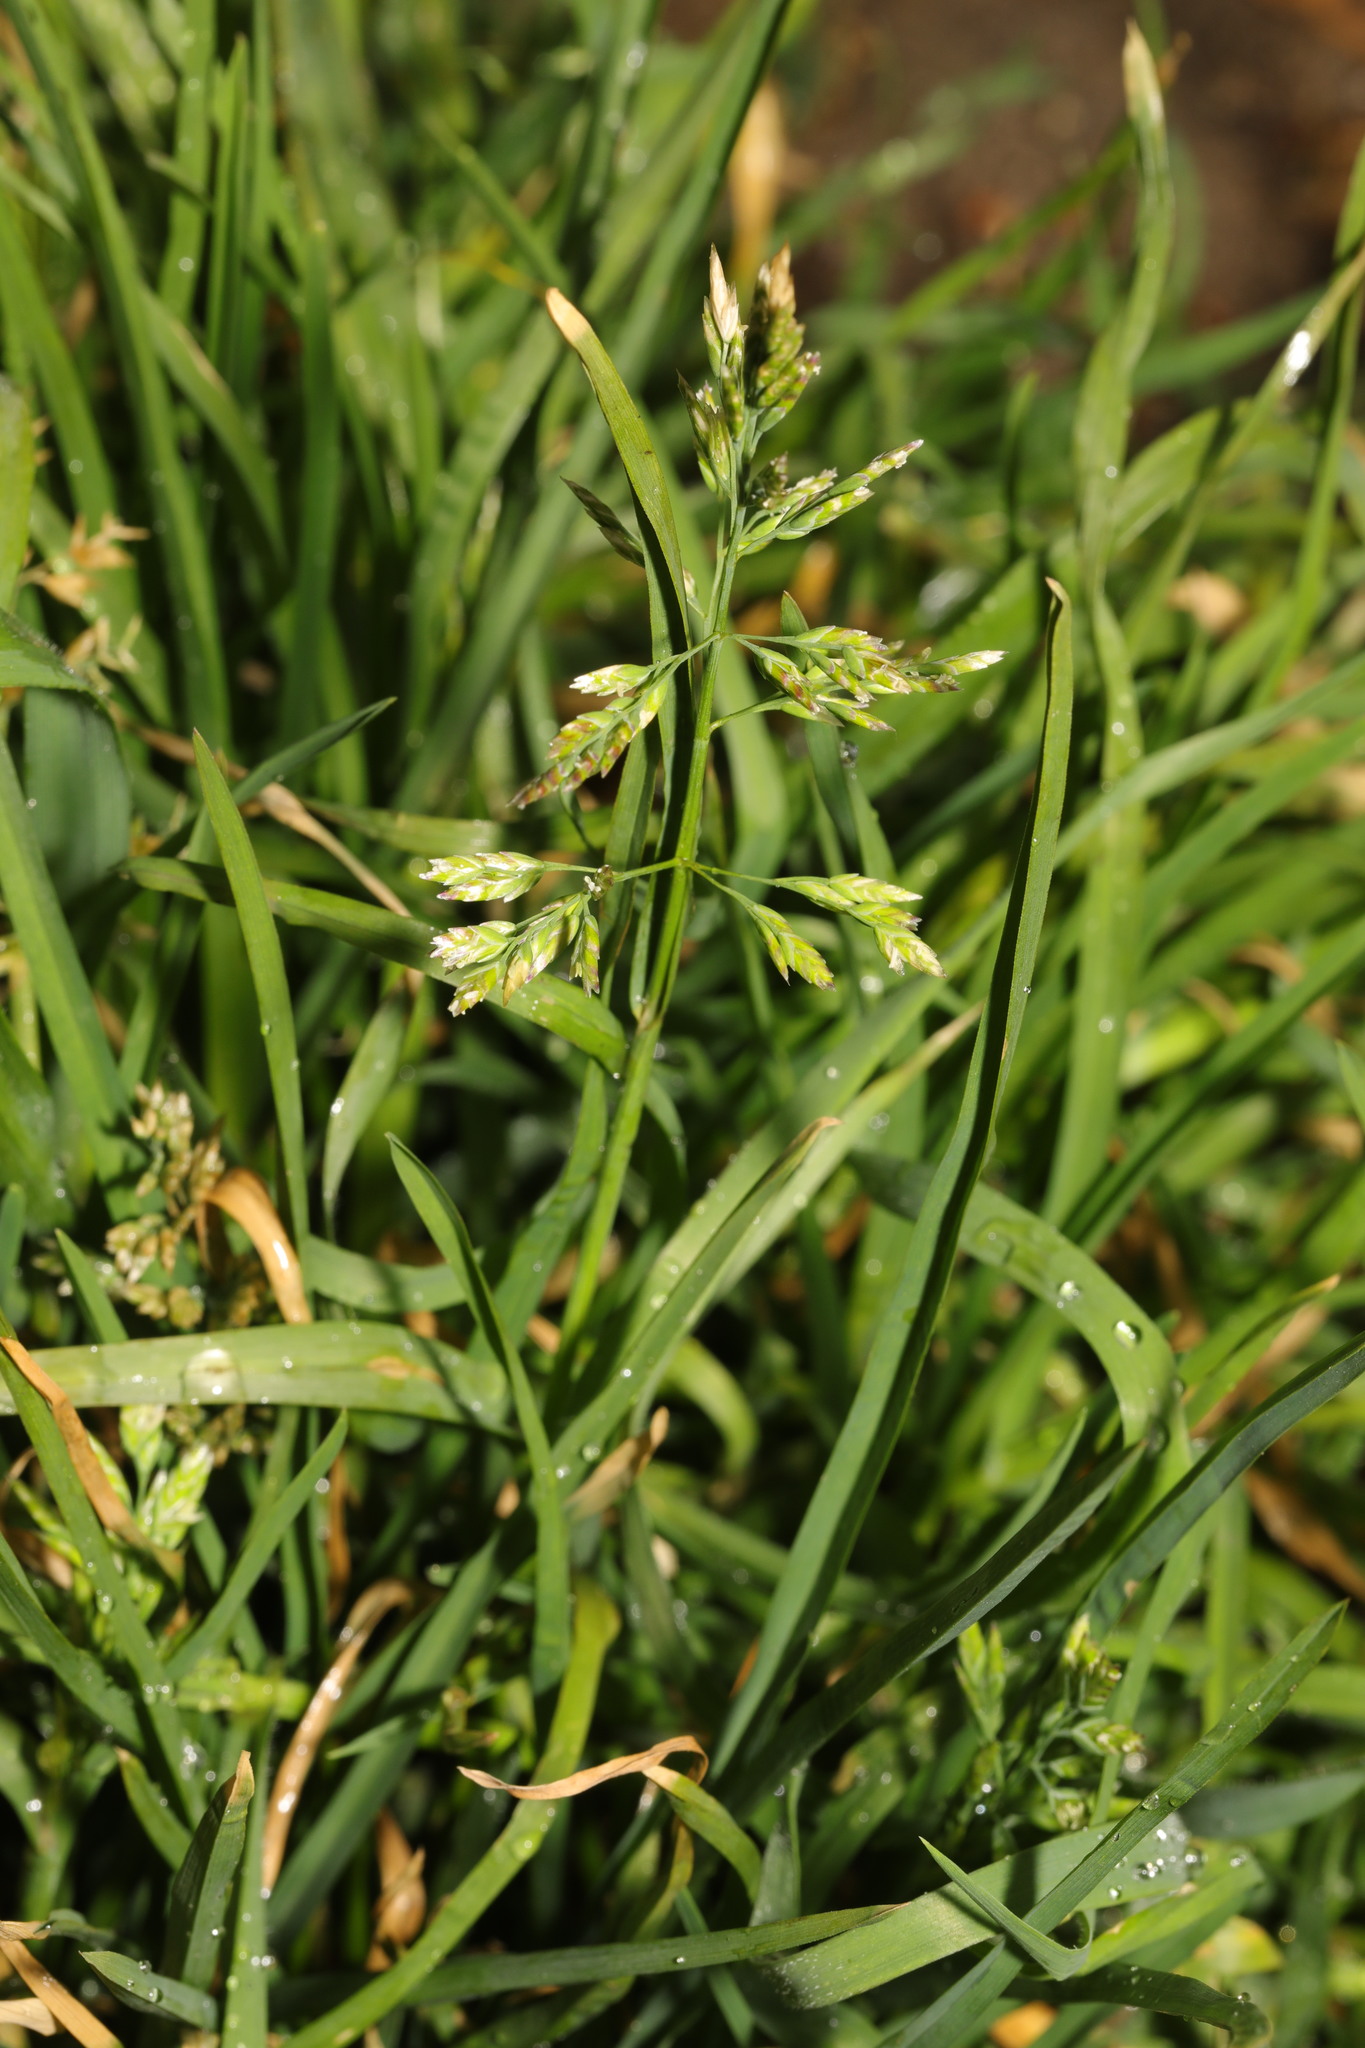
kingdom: Plantae
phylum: Tracheophyta
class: Liliopsida
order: Poales
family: Poaceae
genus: Poa
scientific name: Poa annua
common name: Annual bluegrass
